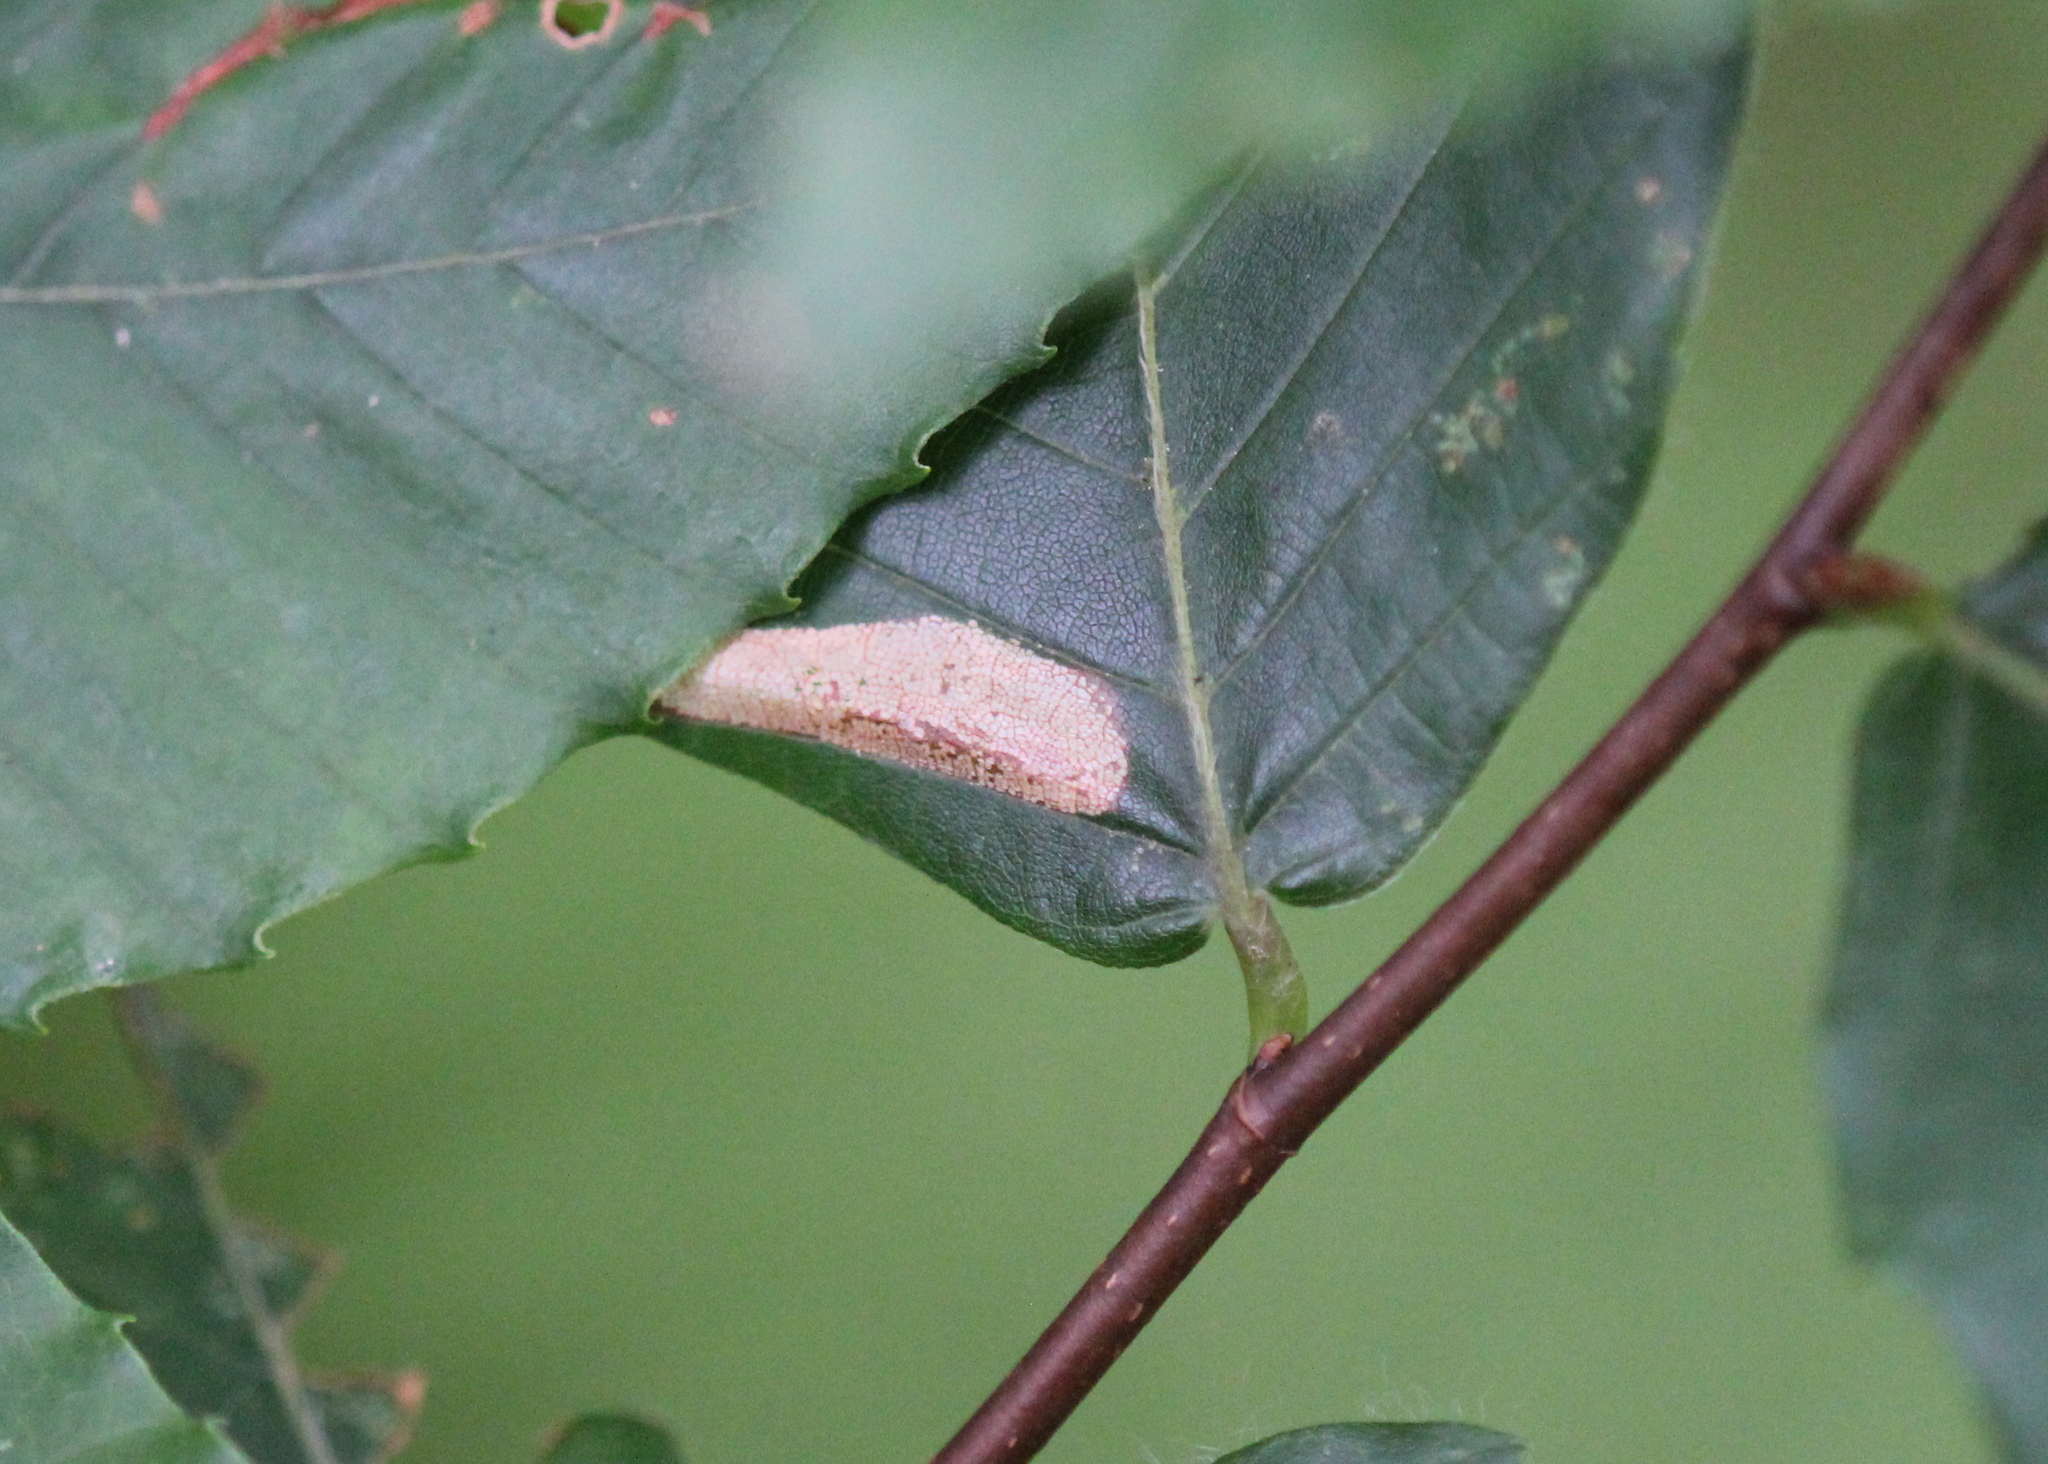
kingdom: Animalia
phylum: Arthropoda
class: Insecta
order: Lepidoptera
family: Gracillariidae
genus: Phyllonorycter
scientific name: Phyllonorycter maestingella
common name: Beech midget
